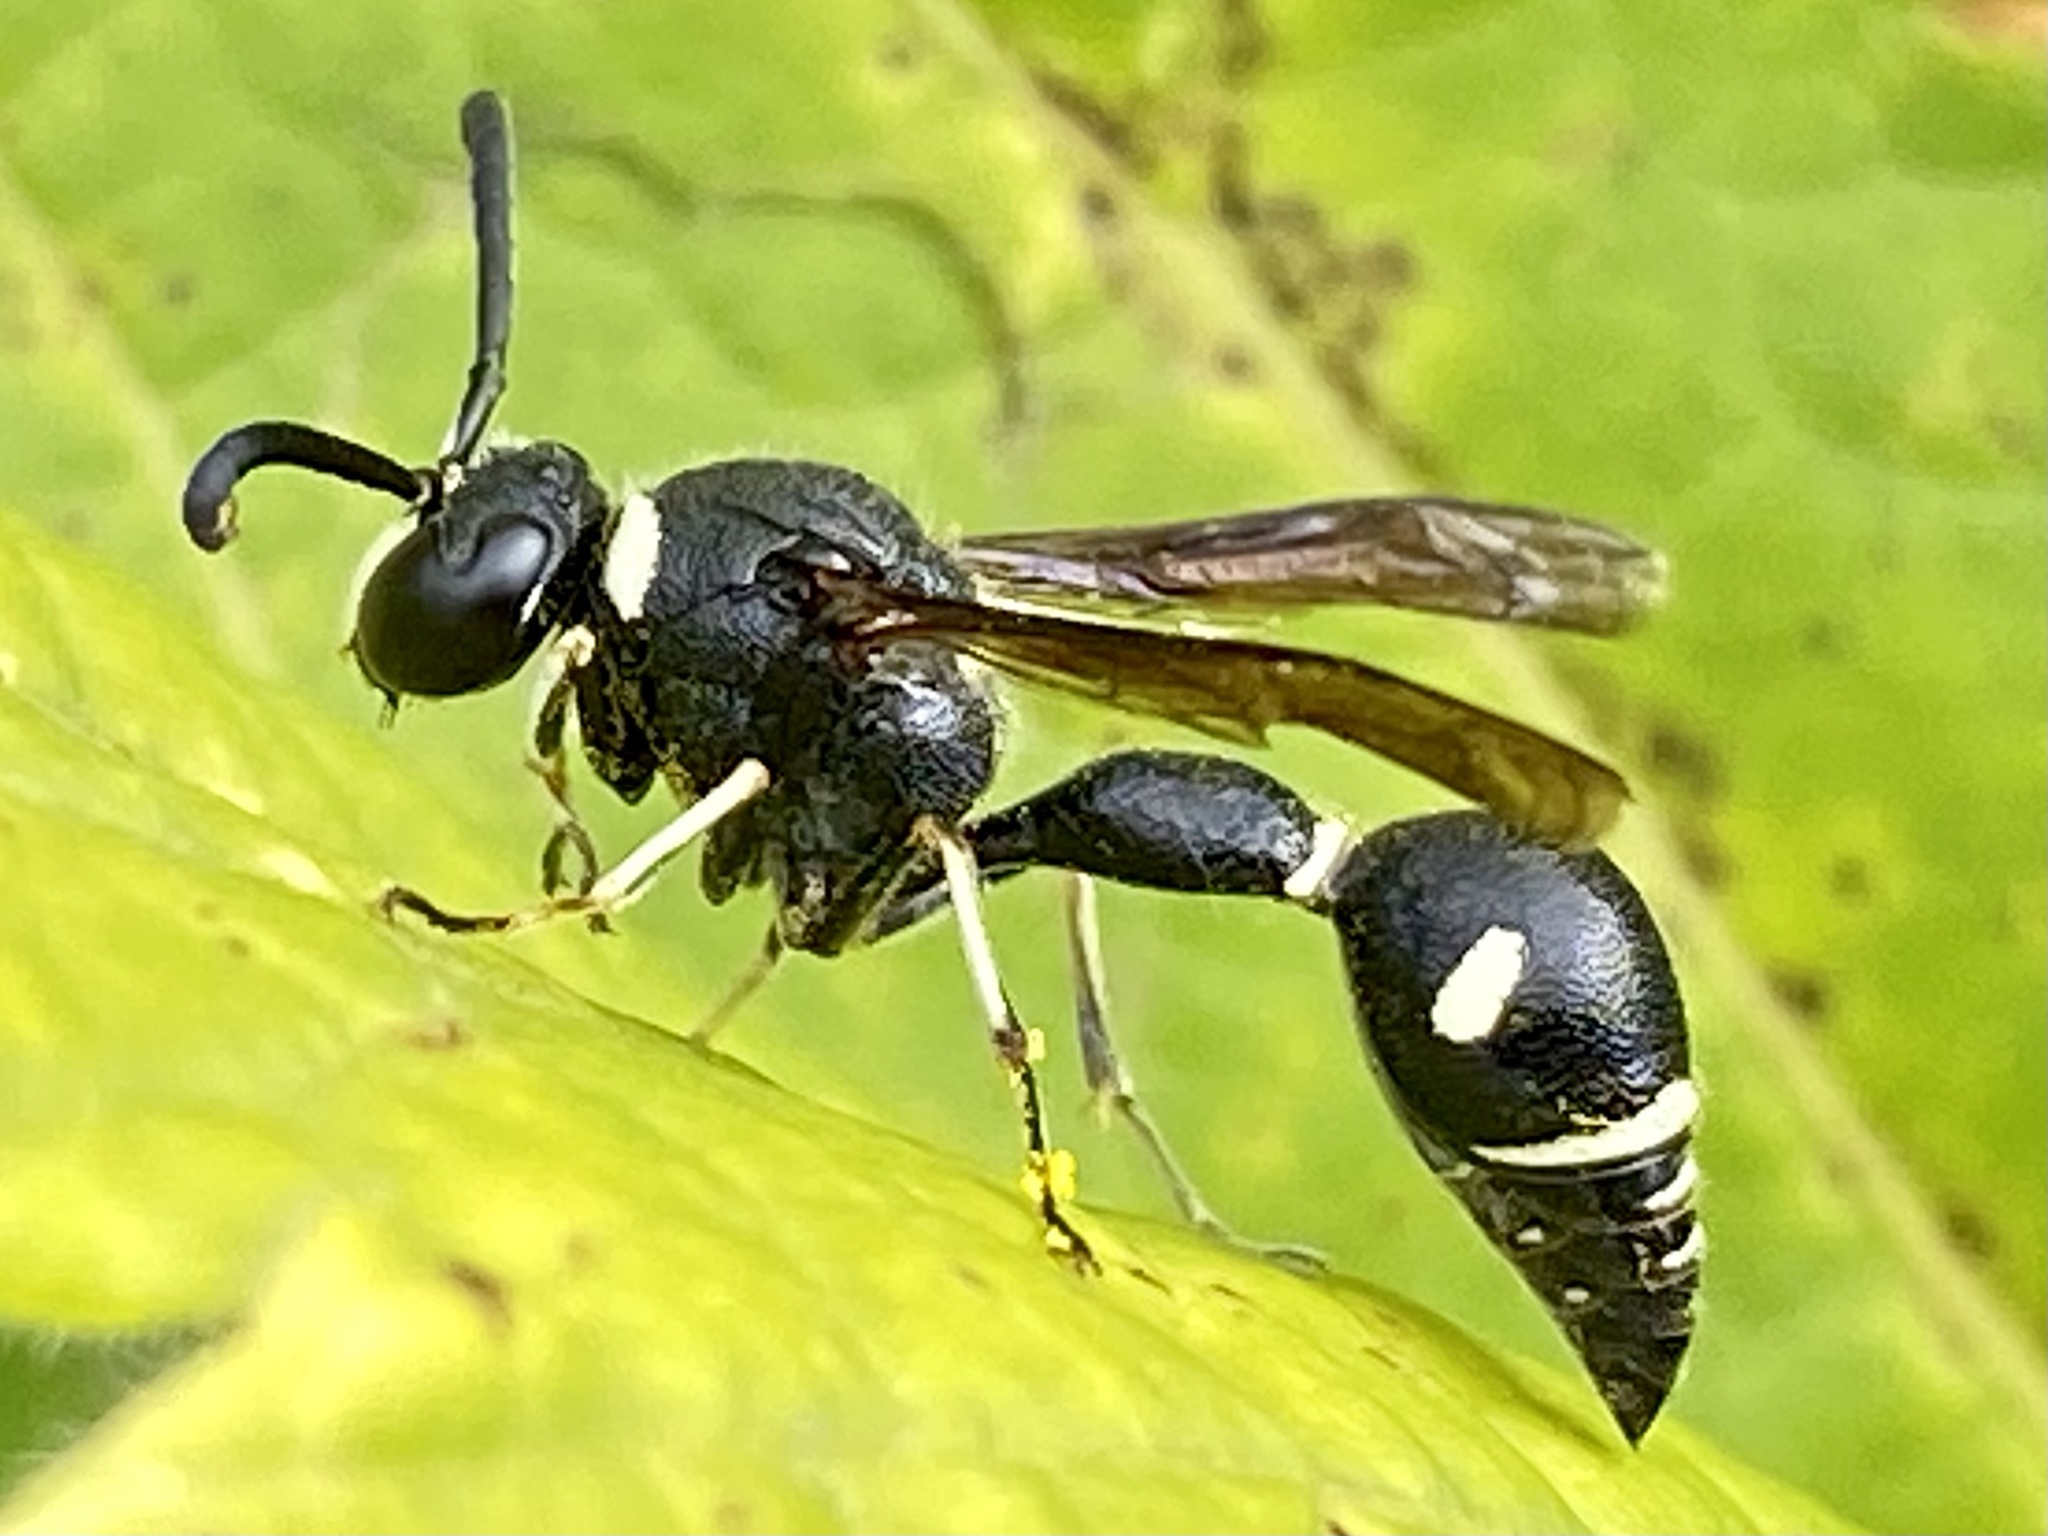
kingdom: Animalia
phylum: Arthropoda
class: Insecta
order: Hymenoptera
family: Vespidae
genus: Eumenes
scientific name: Eumenes fraternus
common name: Fraternal potter wasp
